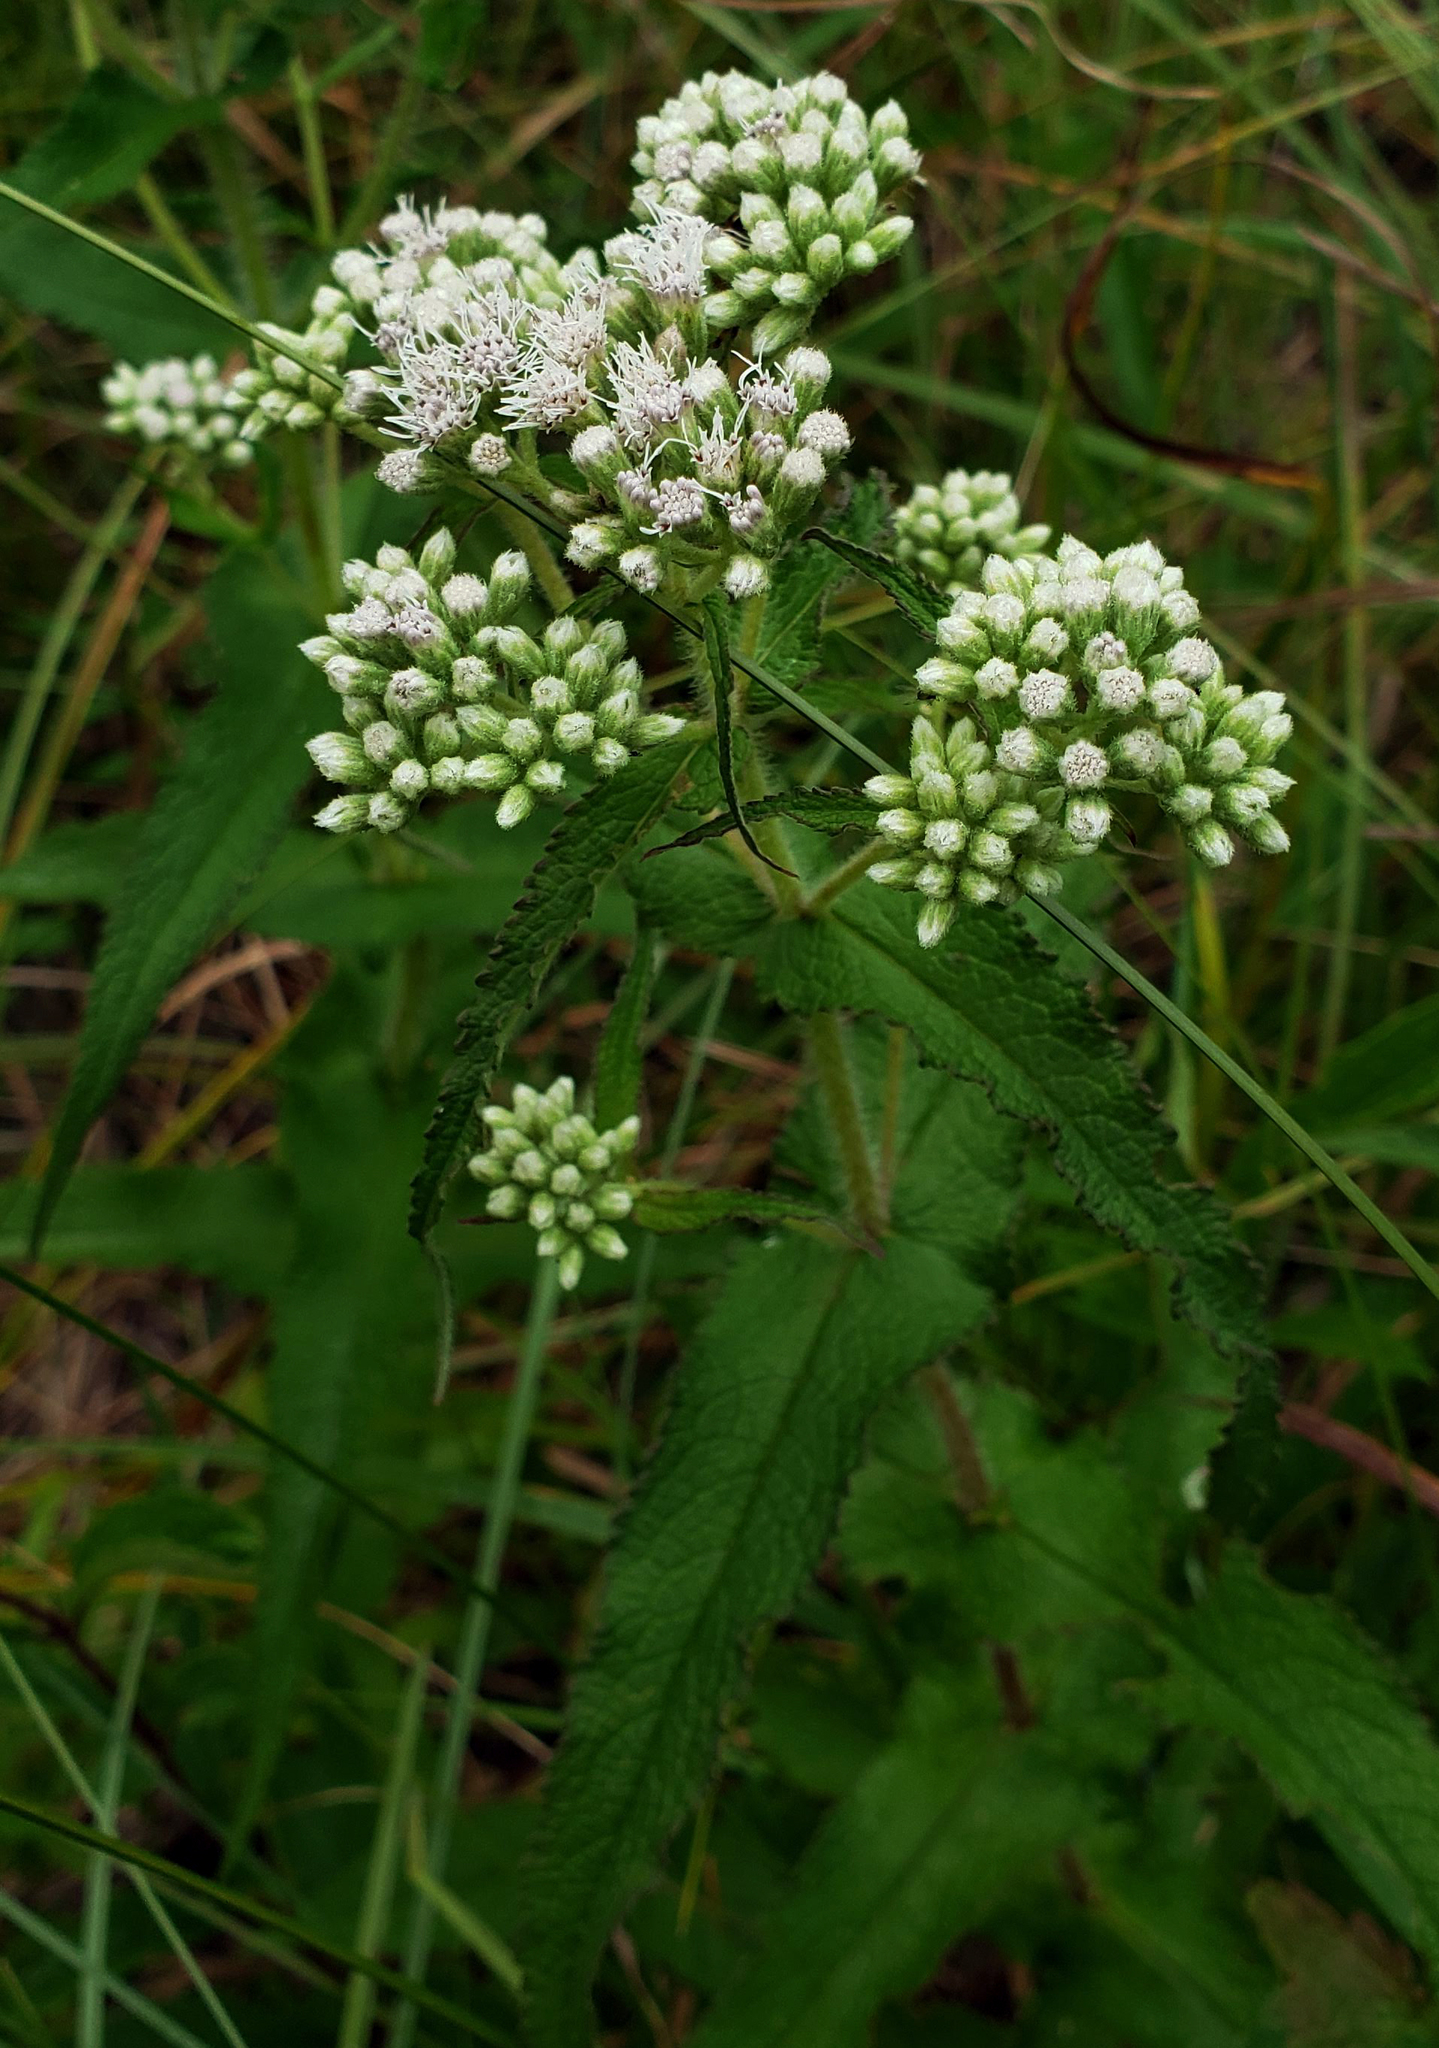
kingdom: Plantae
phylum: Tracheophyta
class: Magnoliopsida
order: Asterales
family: Asteraceae
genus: Eupatorium
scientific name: Eupatorium perfoliatum
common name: Boneset
